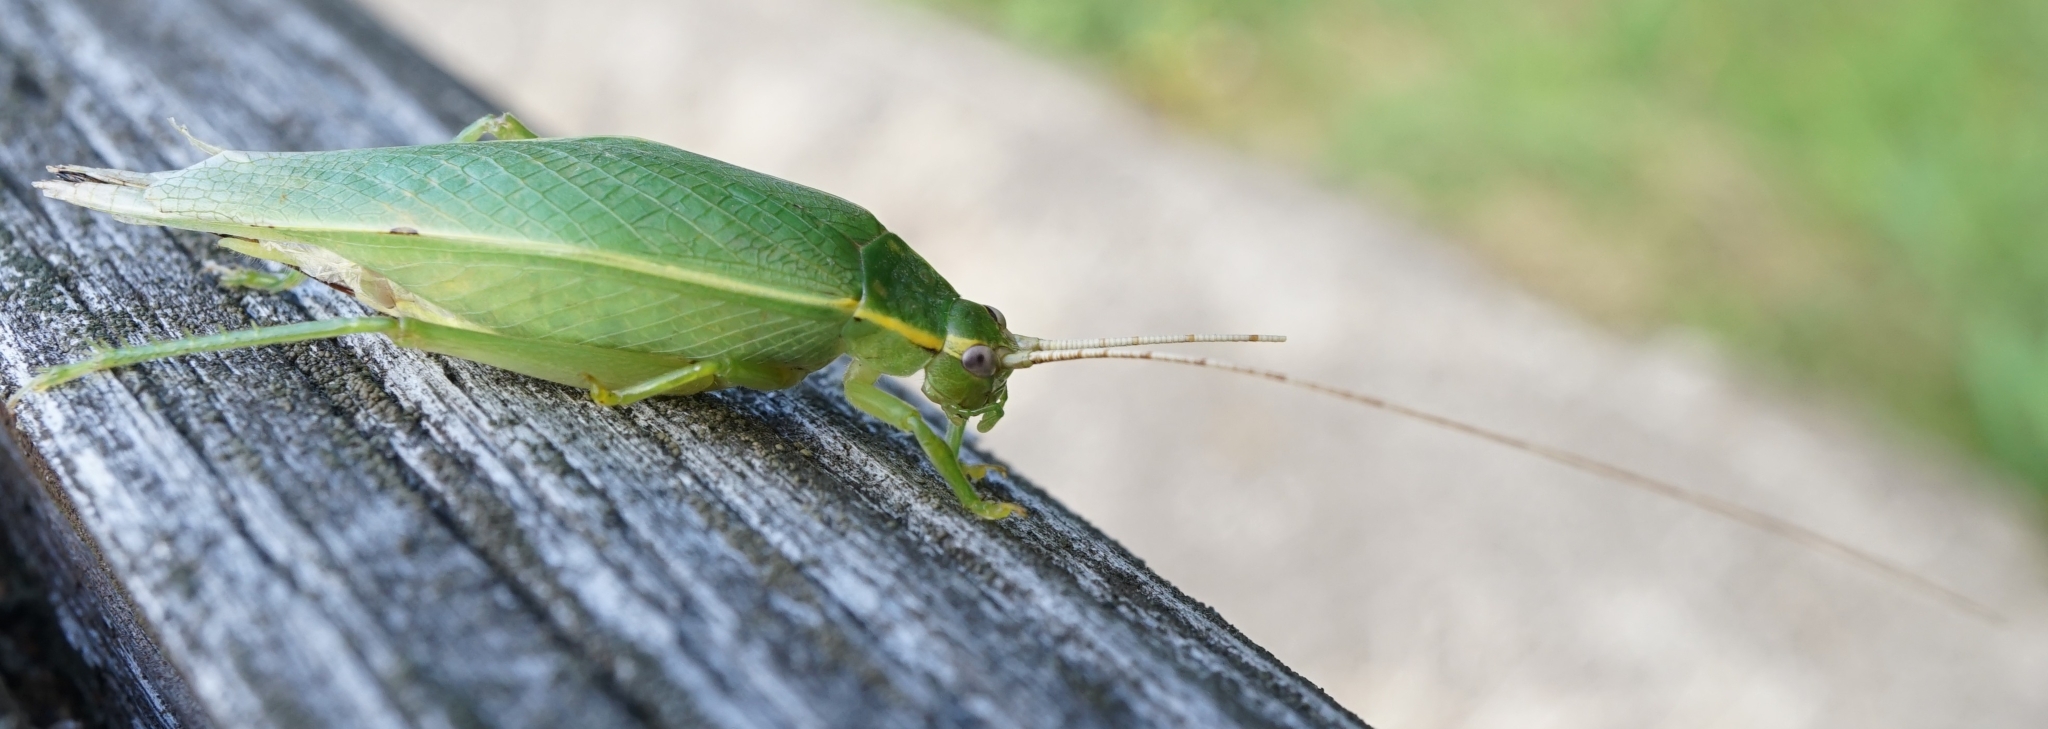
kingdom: Animalia
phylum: Arthropoda
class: Insecta
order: Orthoptera
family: Gryllidae
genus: Truljalia
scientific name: Truljalia hibinonis
